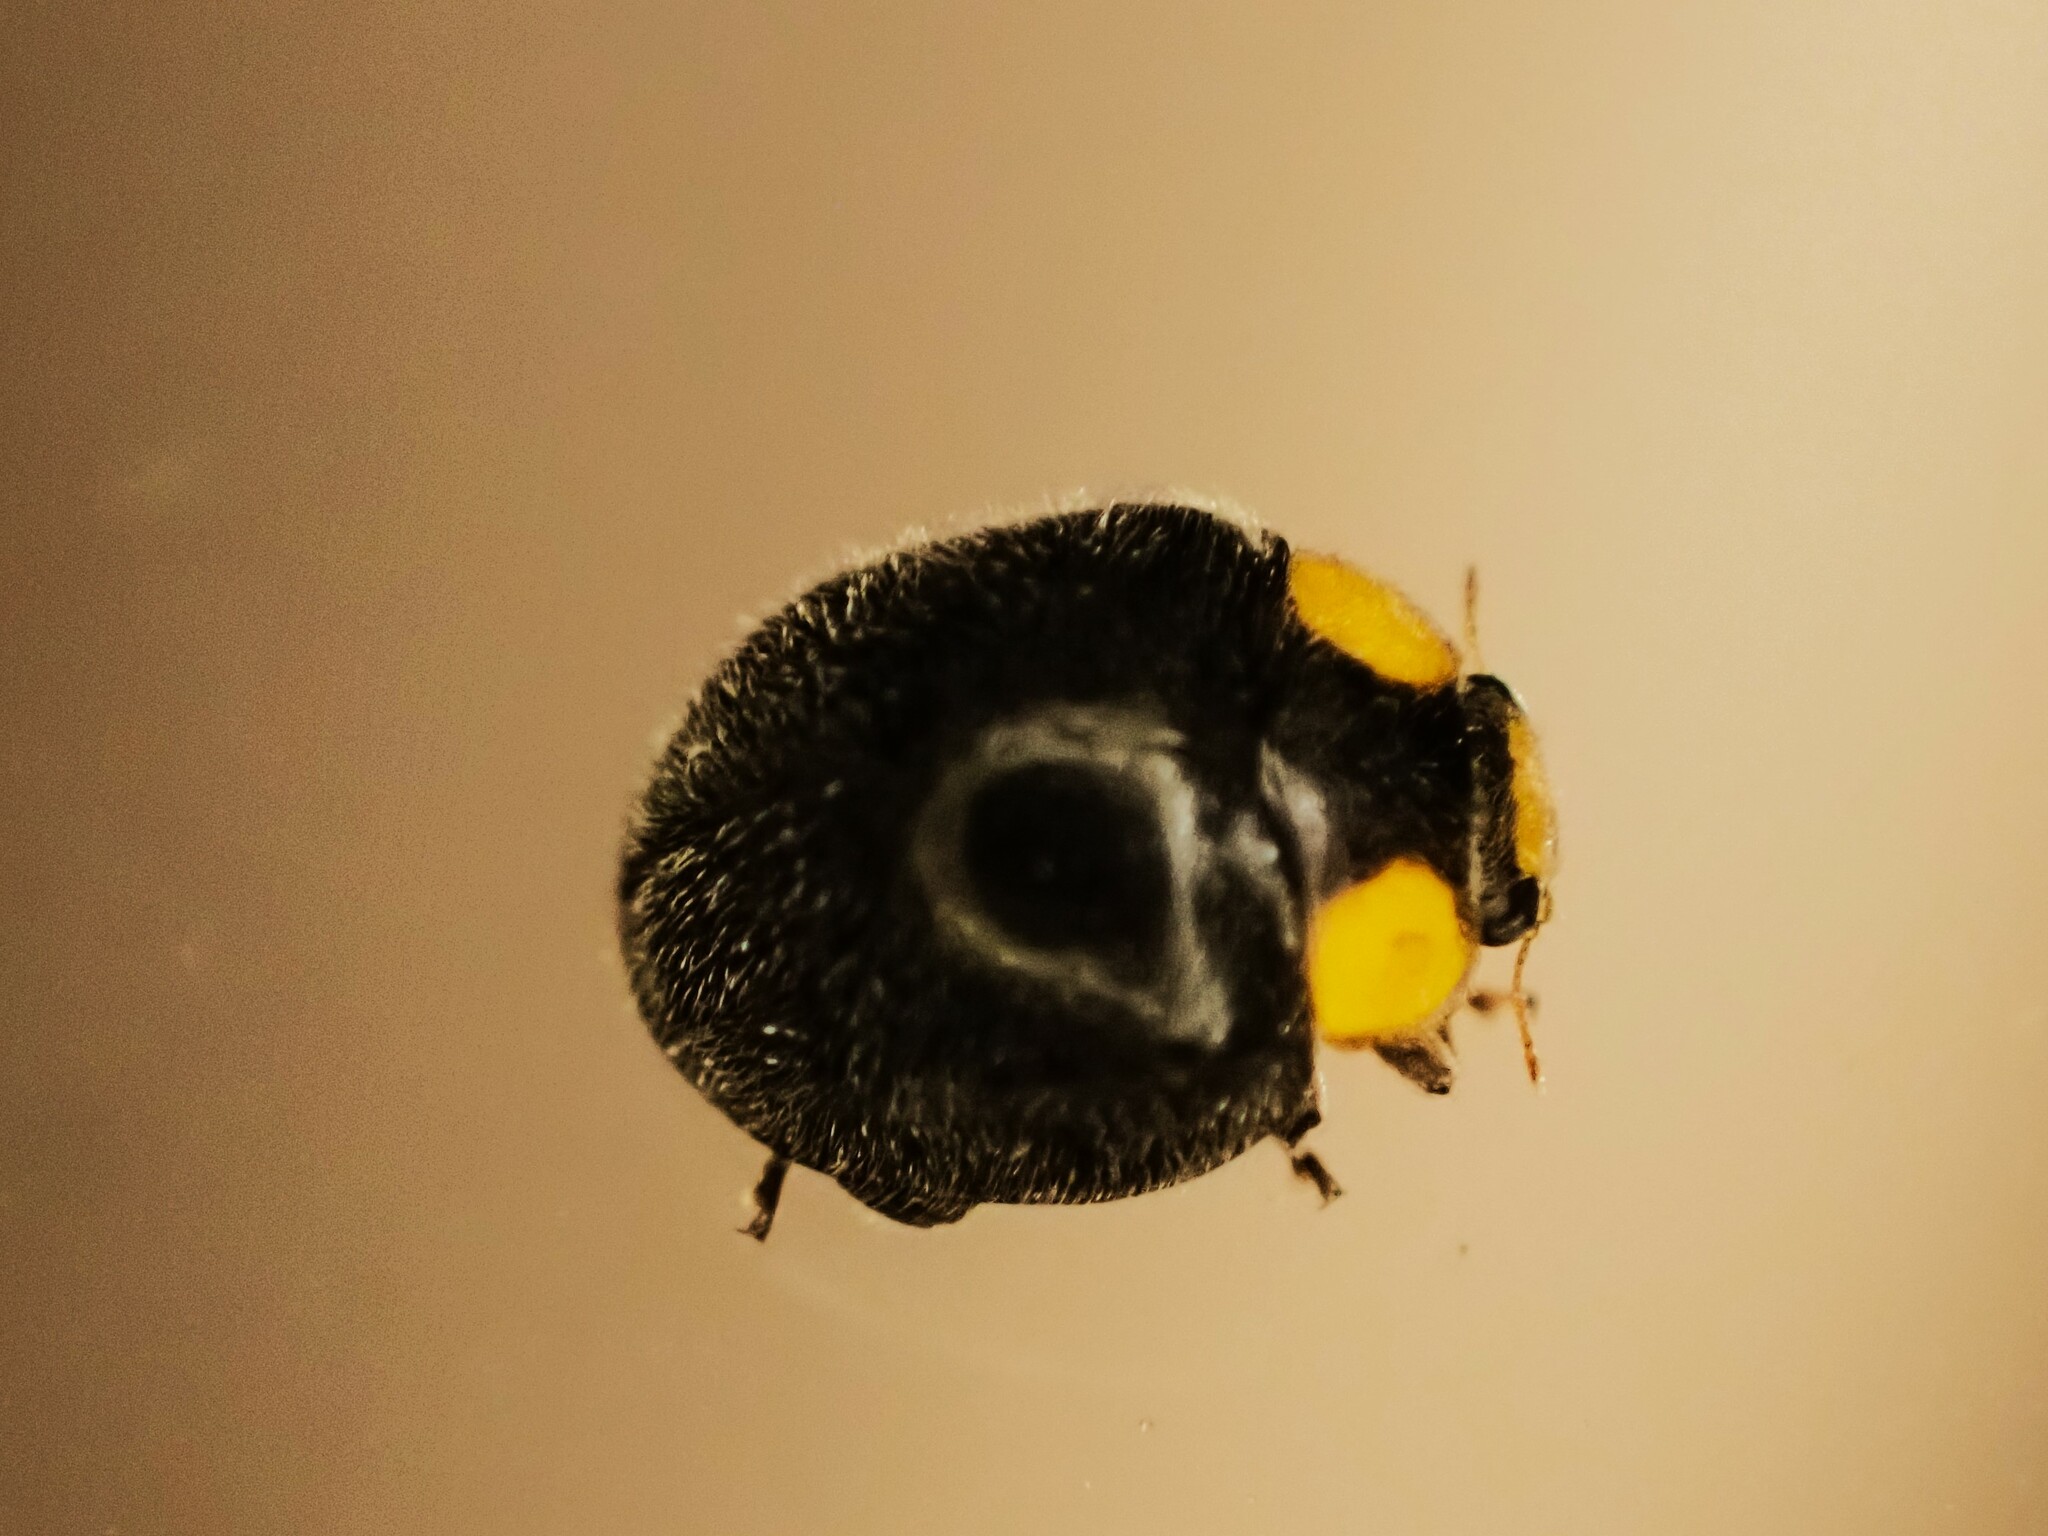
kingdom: Animalia
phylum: Arthropoda
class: Insecta
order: Coleoptera
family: Coccinellidae
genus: Scymnodes
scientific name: Scymnodes lividigaster
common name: Yellowshouldered lady beetle
